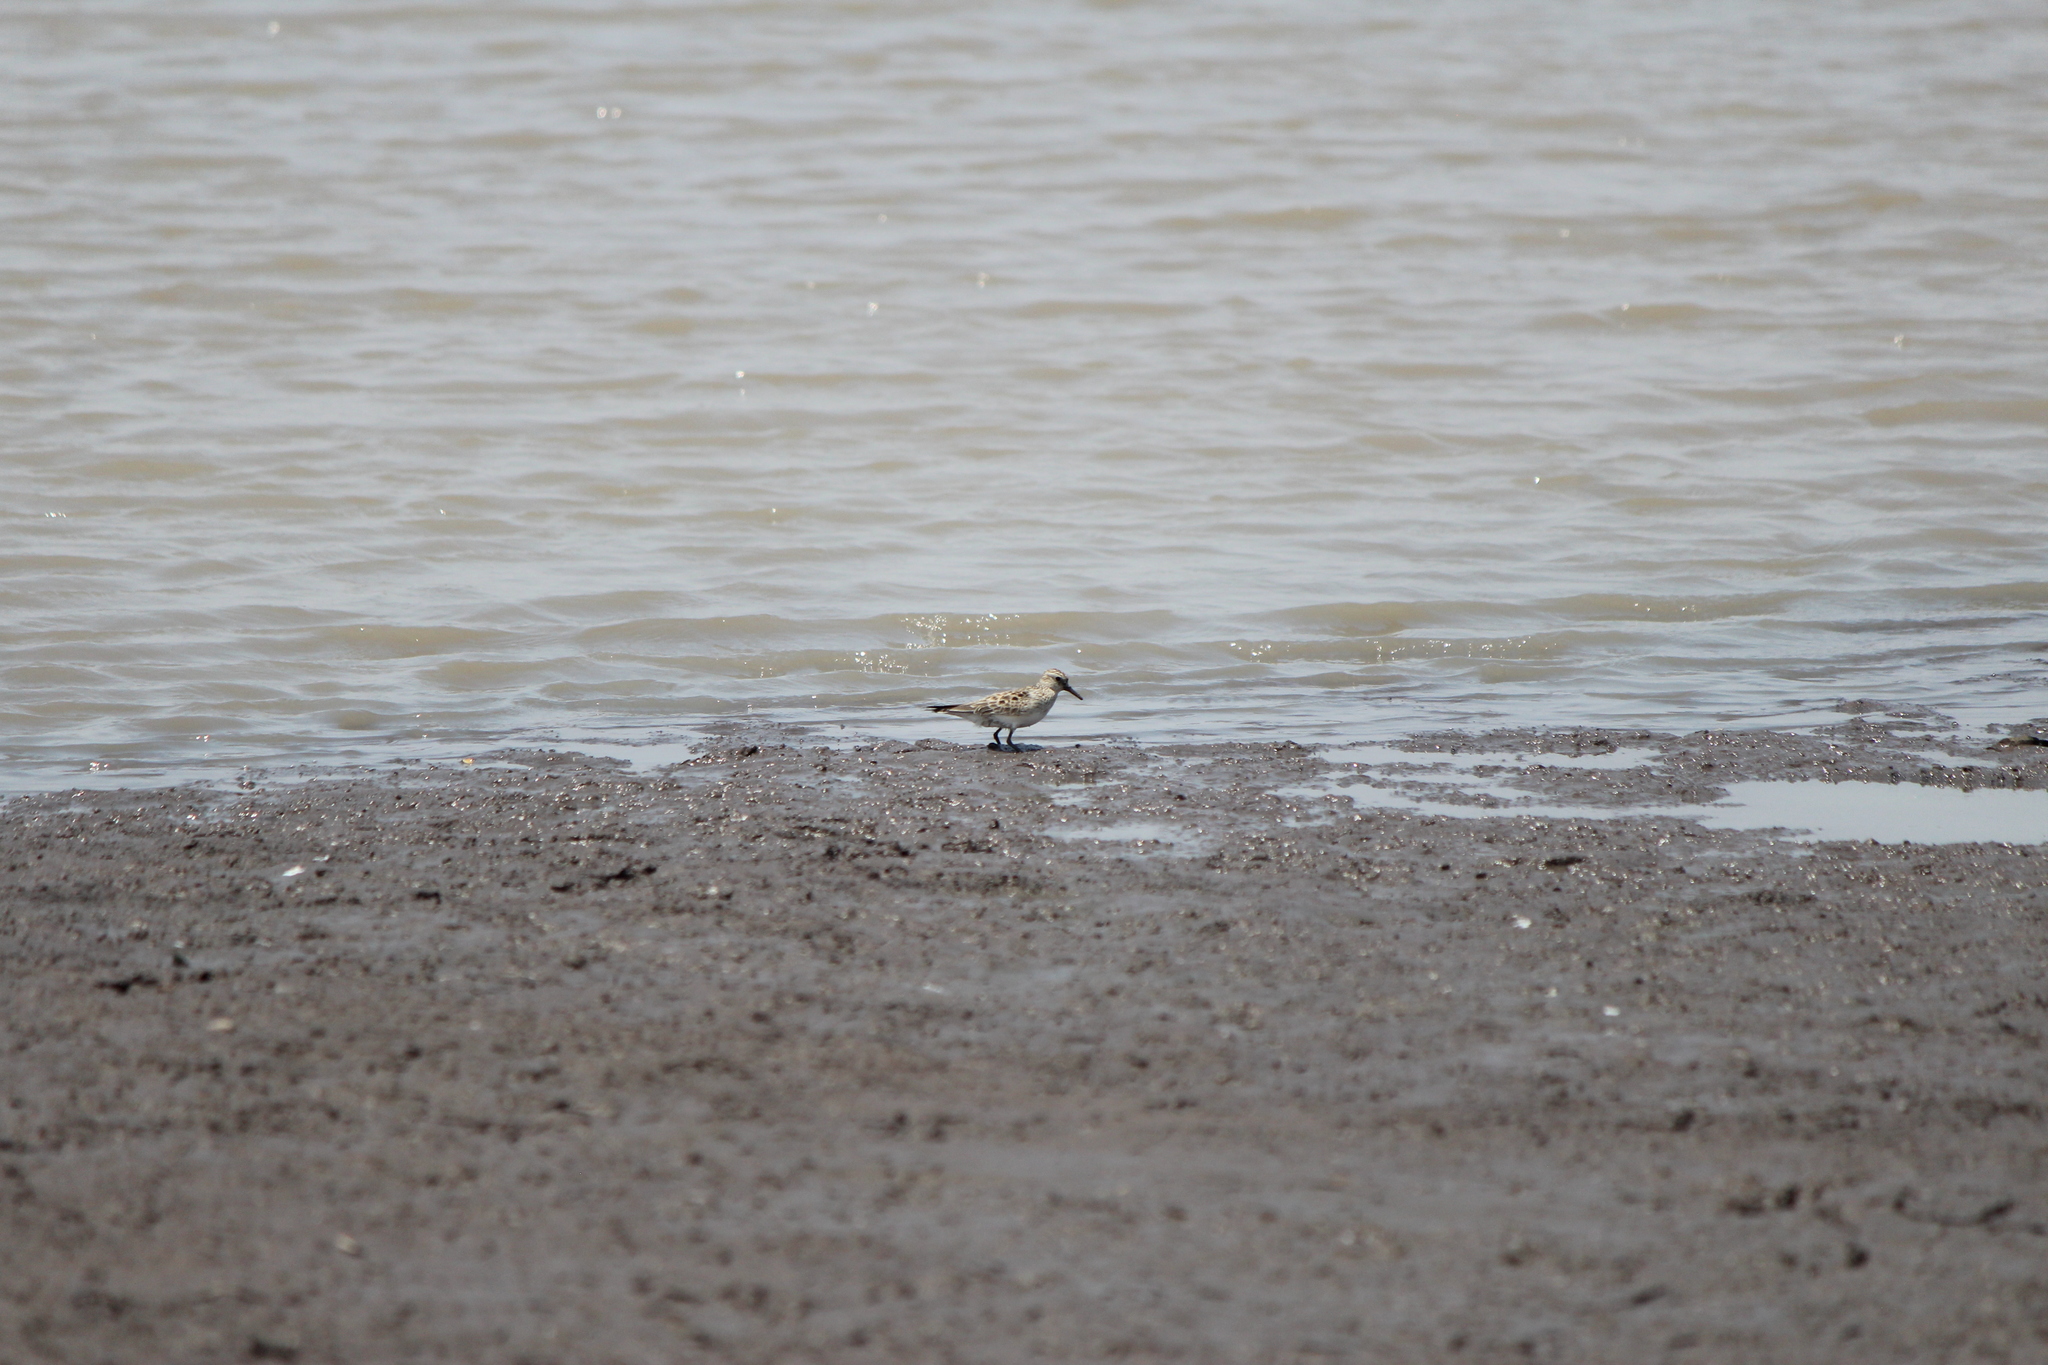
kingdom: Animalia
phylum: Chordata
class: Aves
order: Charadriiformes
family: Scolopacidae
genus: Calidris
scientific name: Calidris bairdii
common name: Baird's sandpiper
